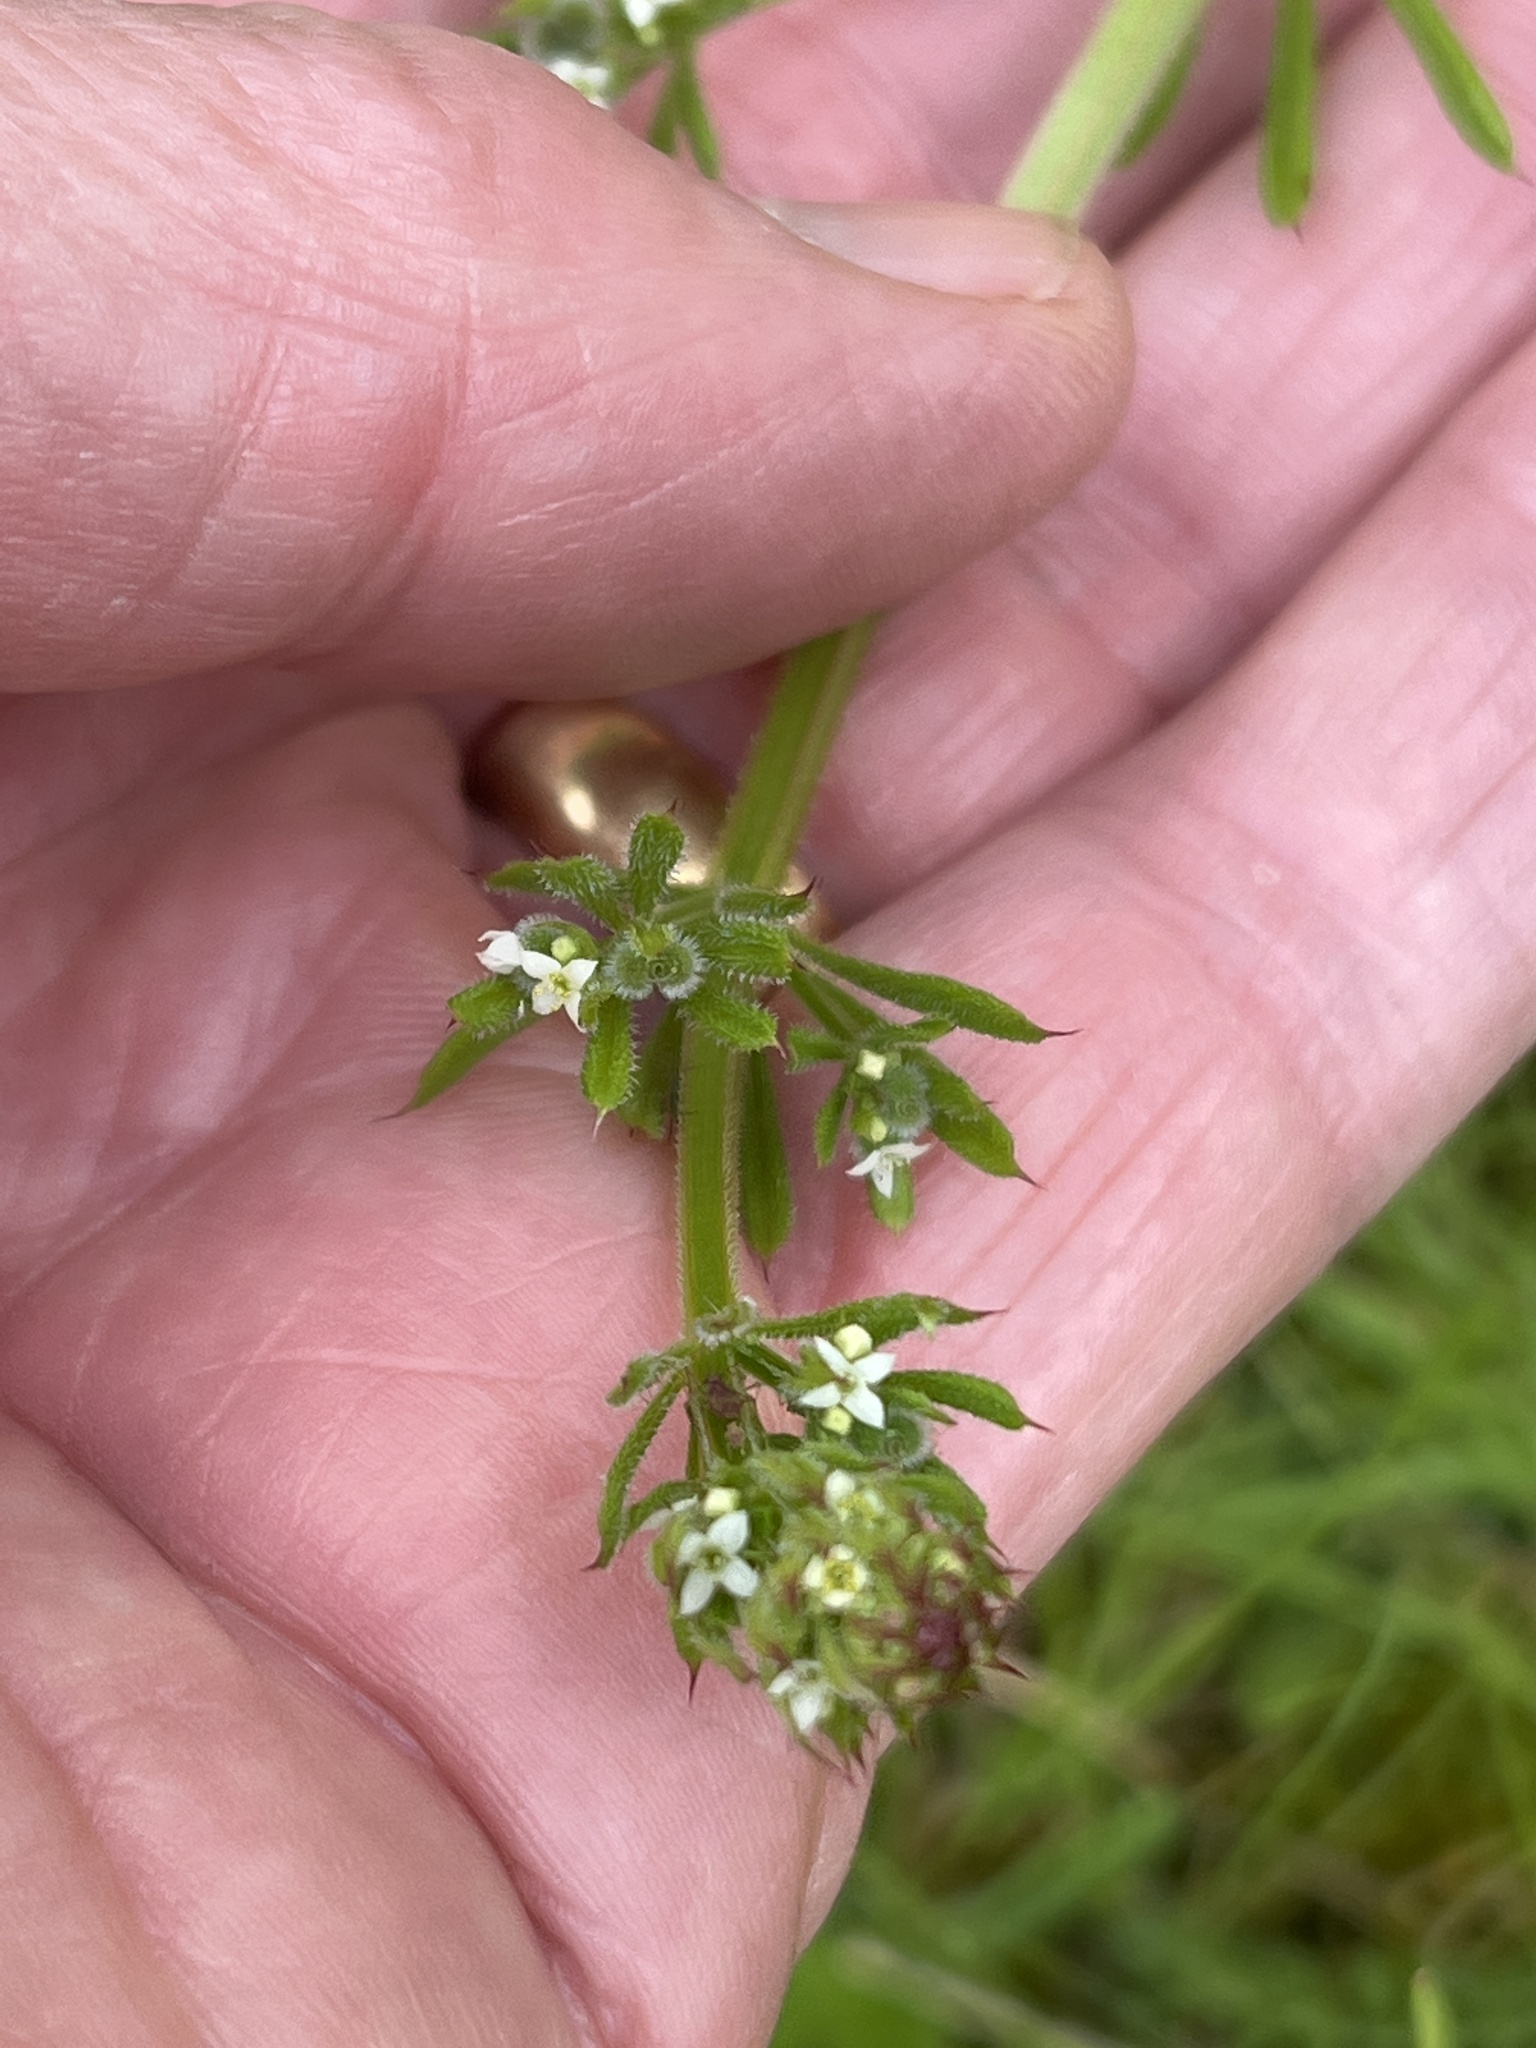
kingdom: Plantae
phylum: Tracheophyta
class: Magnoliopsida
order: Gentianales
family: Rubiaceae
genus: Galium
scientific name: Galium aparine
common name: Cleavers
